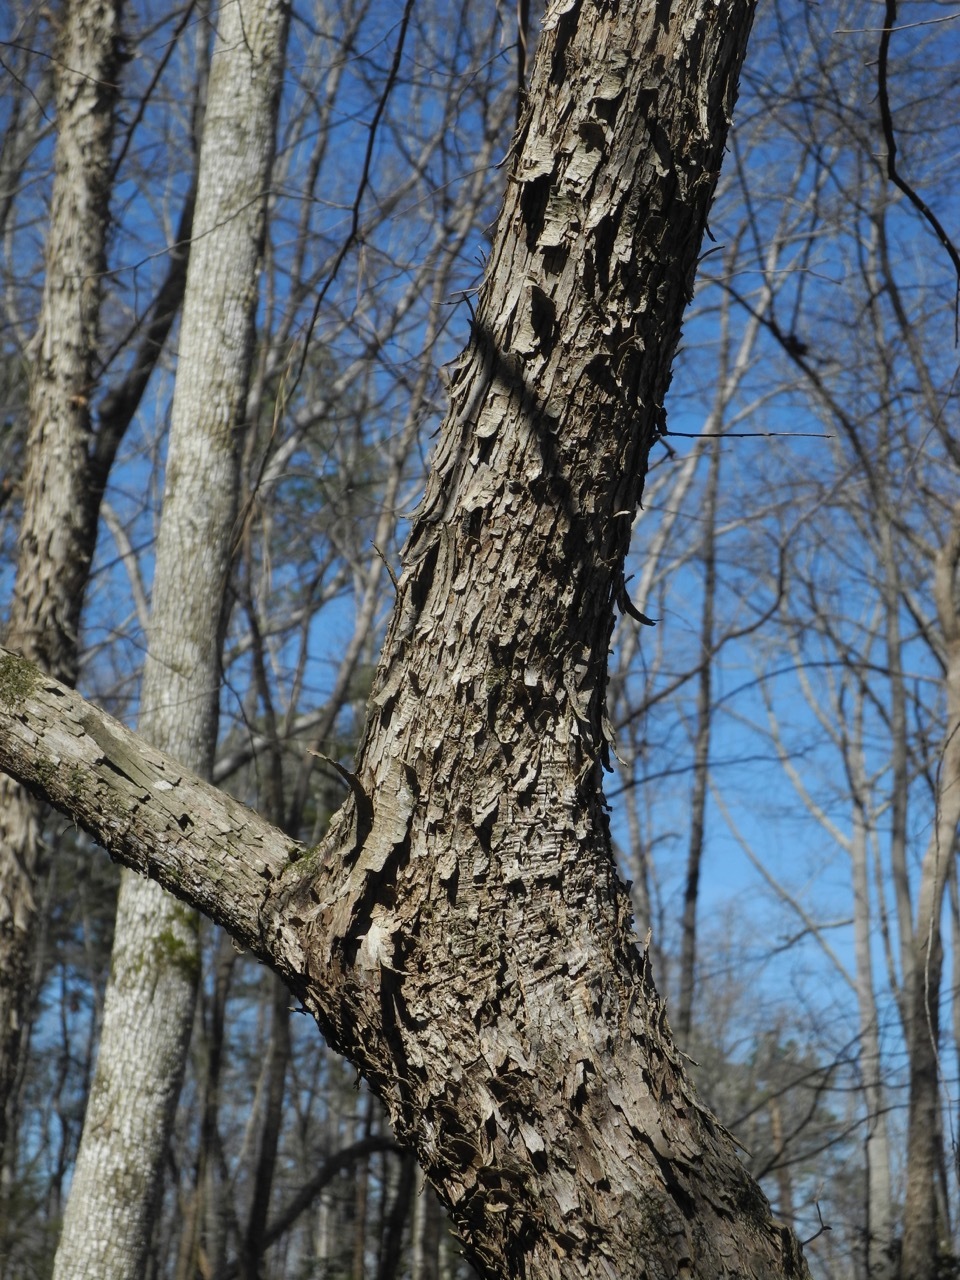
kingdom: Plantae
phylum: Tracheophyta
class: Magnoliopsida
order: Fagales
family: Betulaceae
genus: Ostrya
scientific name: Ostrya virginiana
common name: Ironwood
